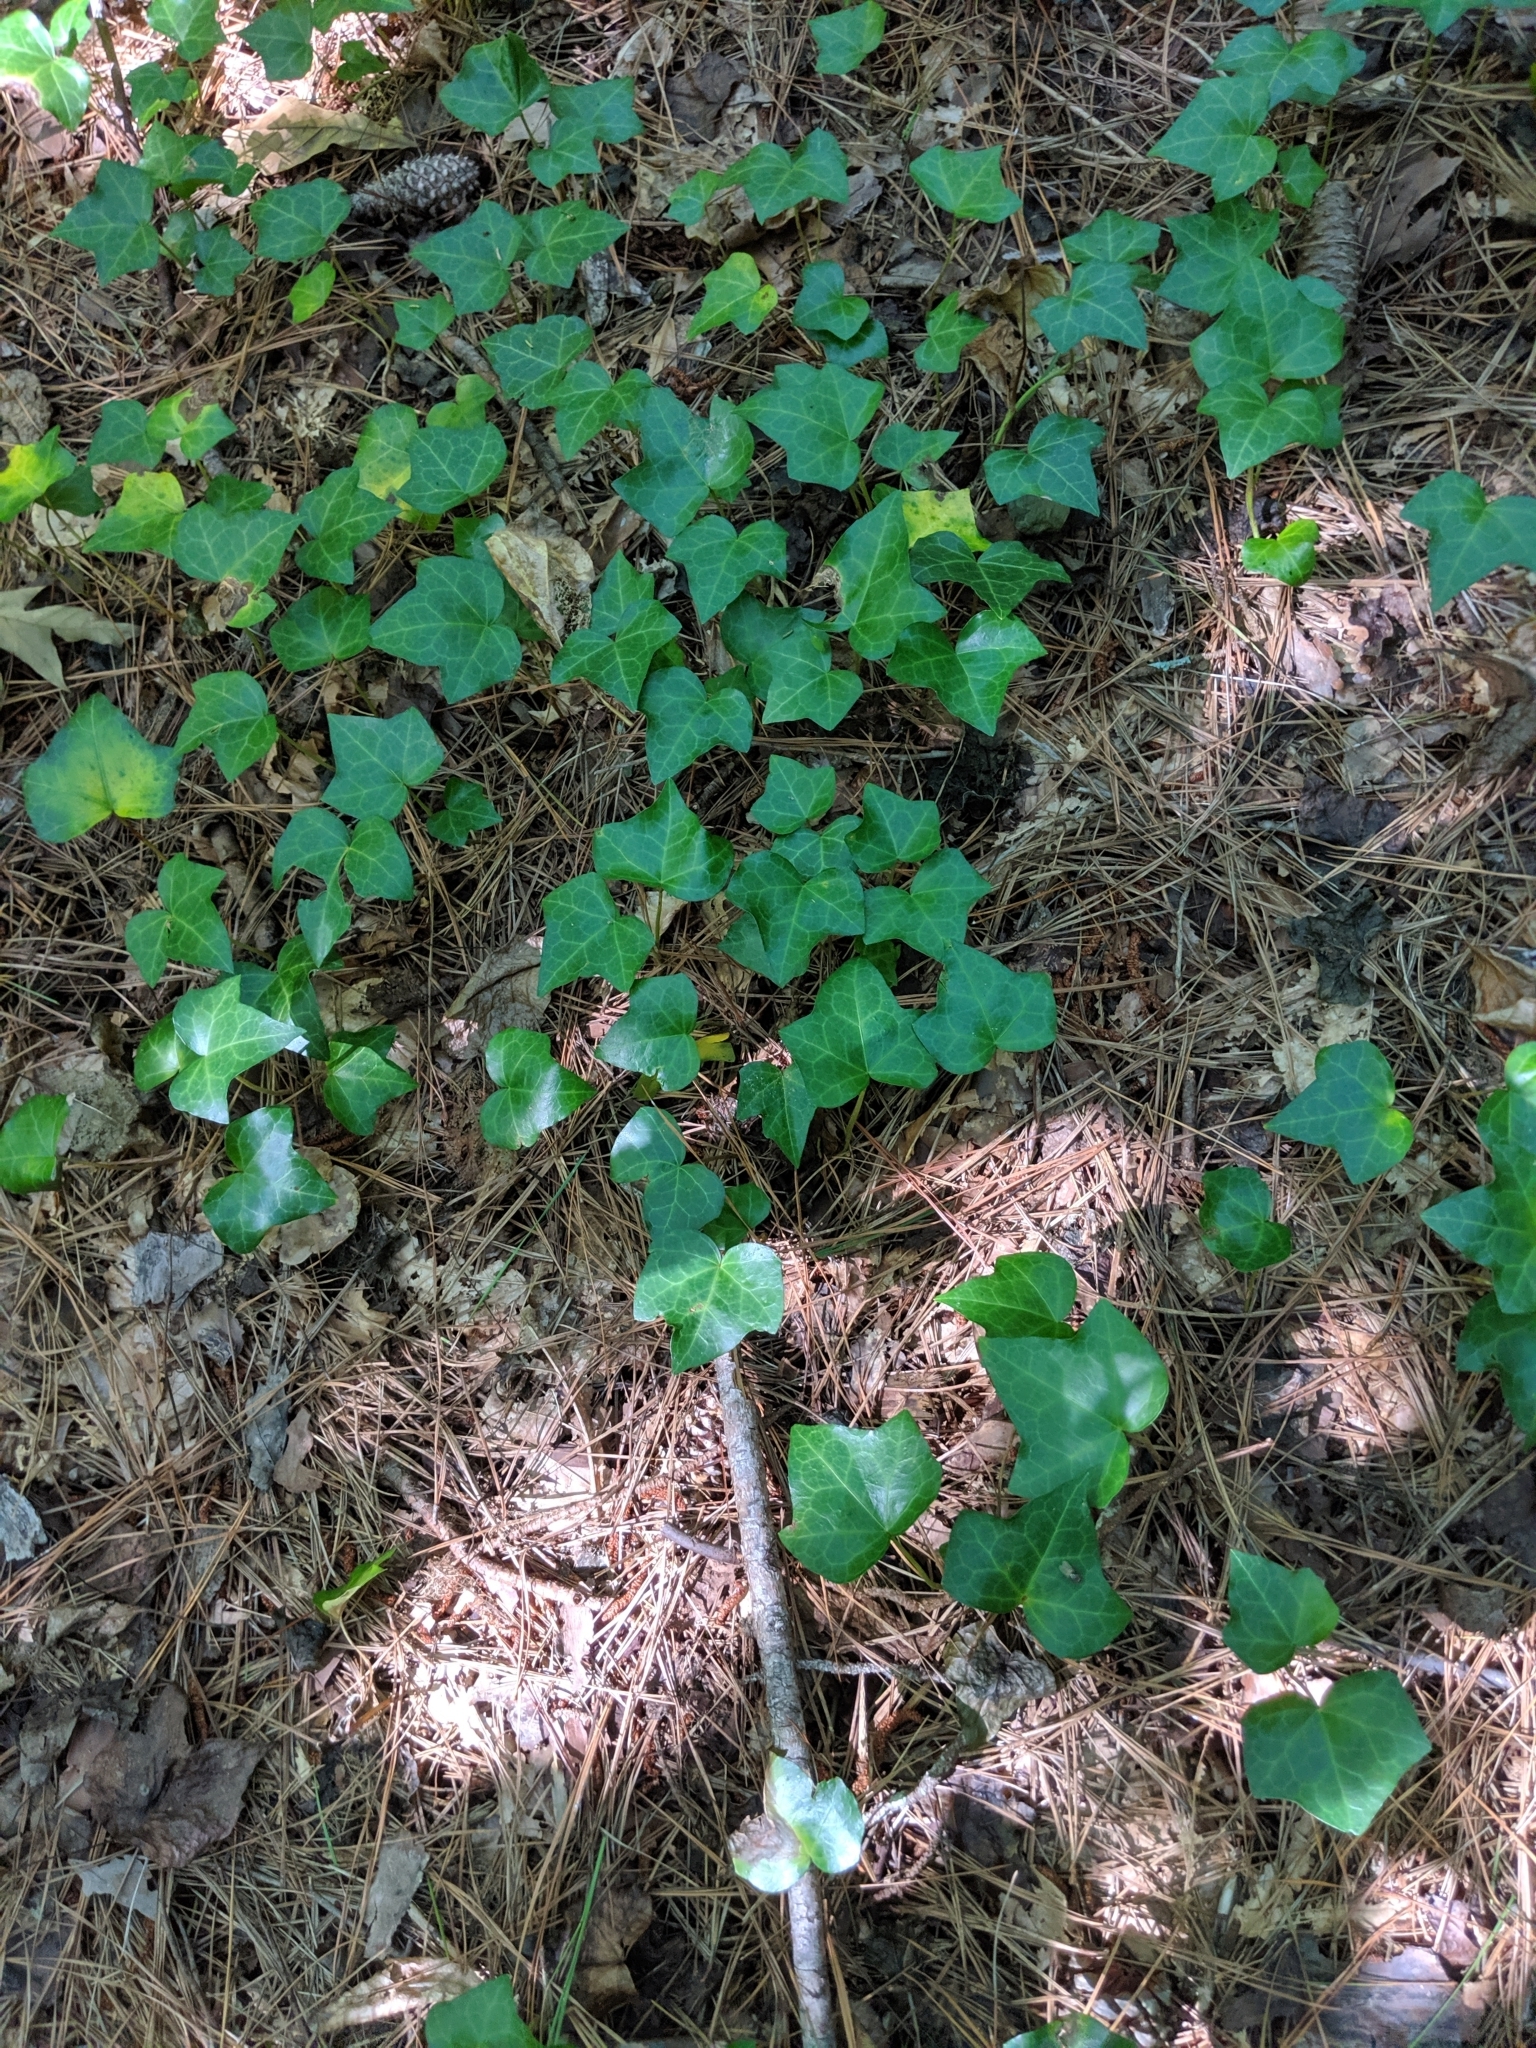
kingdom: Plantae
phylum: Tracheophyta
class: Magnoliopsida
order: Apiales
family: Araliaceae
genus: Hedera
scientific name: Hedera helix
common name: Ivy
